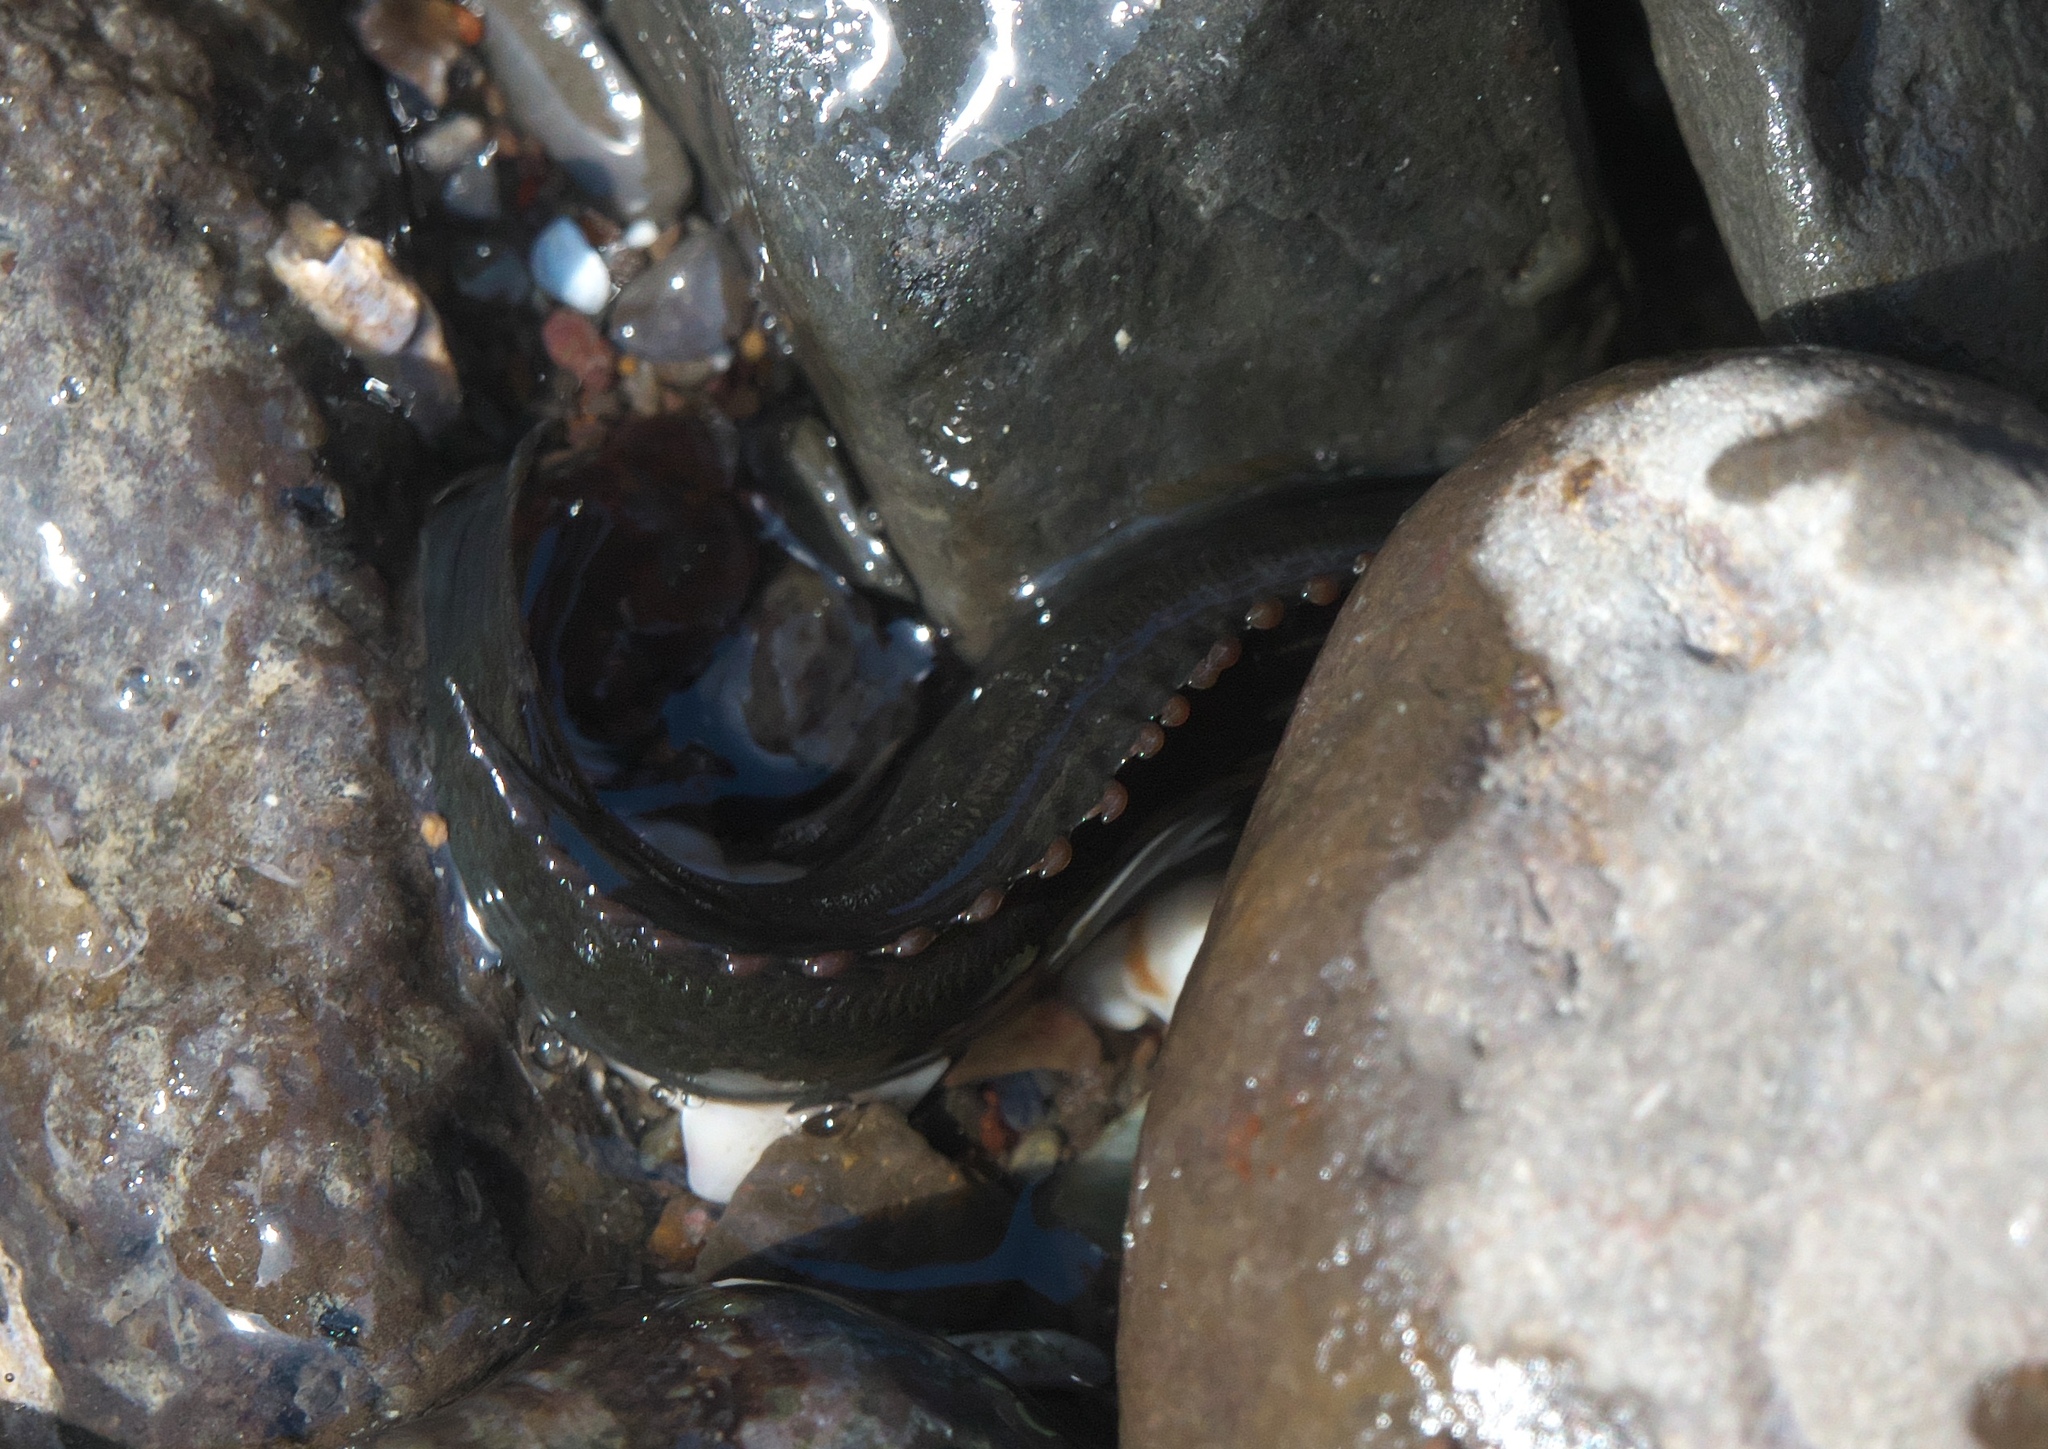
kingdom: Animalia
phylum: Chordata
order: Perciformes
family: Plesiopidae
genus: Acanthoclinus
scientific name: Acanthoclinus fuscus
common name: Olive rockfish
